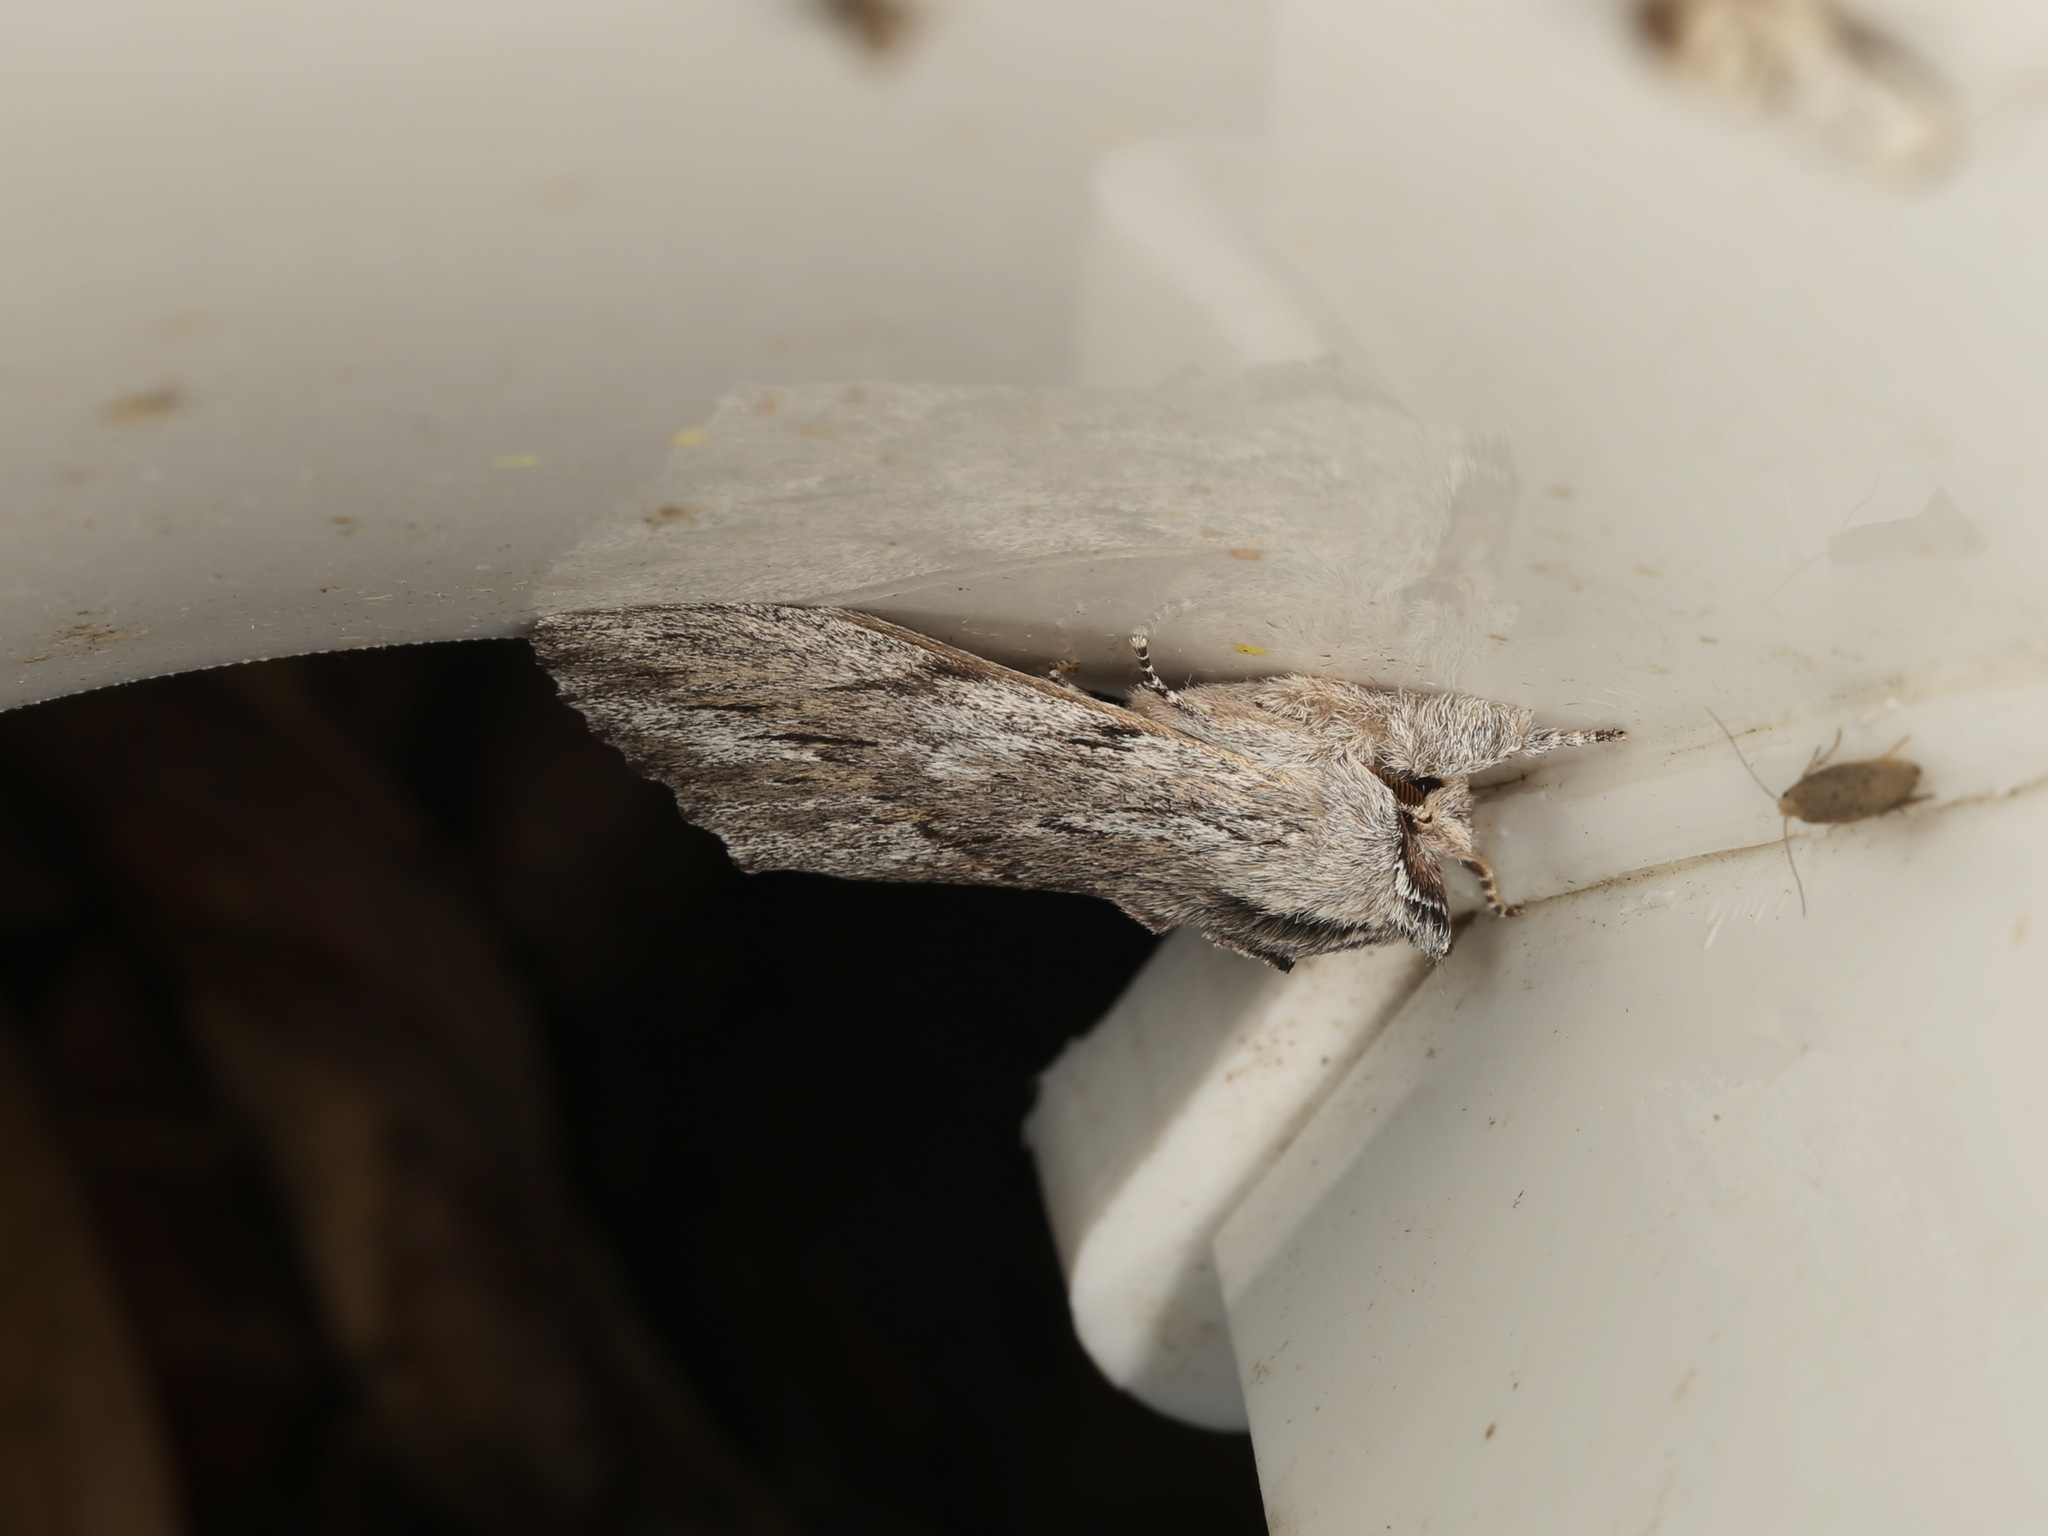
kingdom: Animalia
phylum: Arthropoda
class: Insecta
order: Lepidoptera
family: Notodontidae
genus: Destolmia
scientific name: Destolmia lineata
